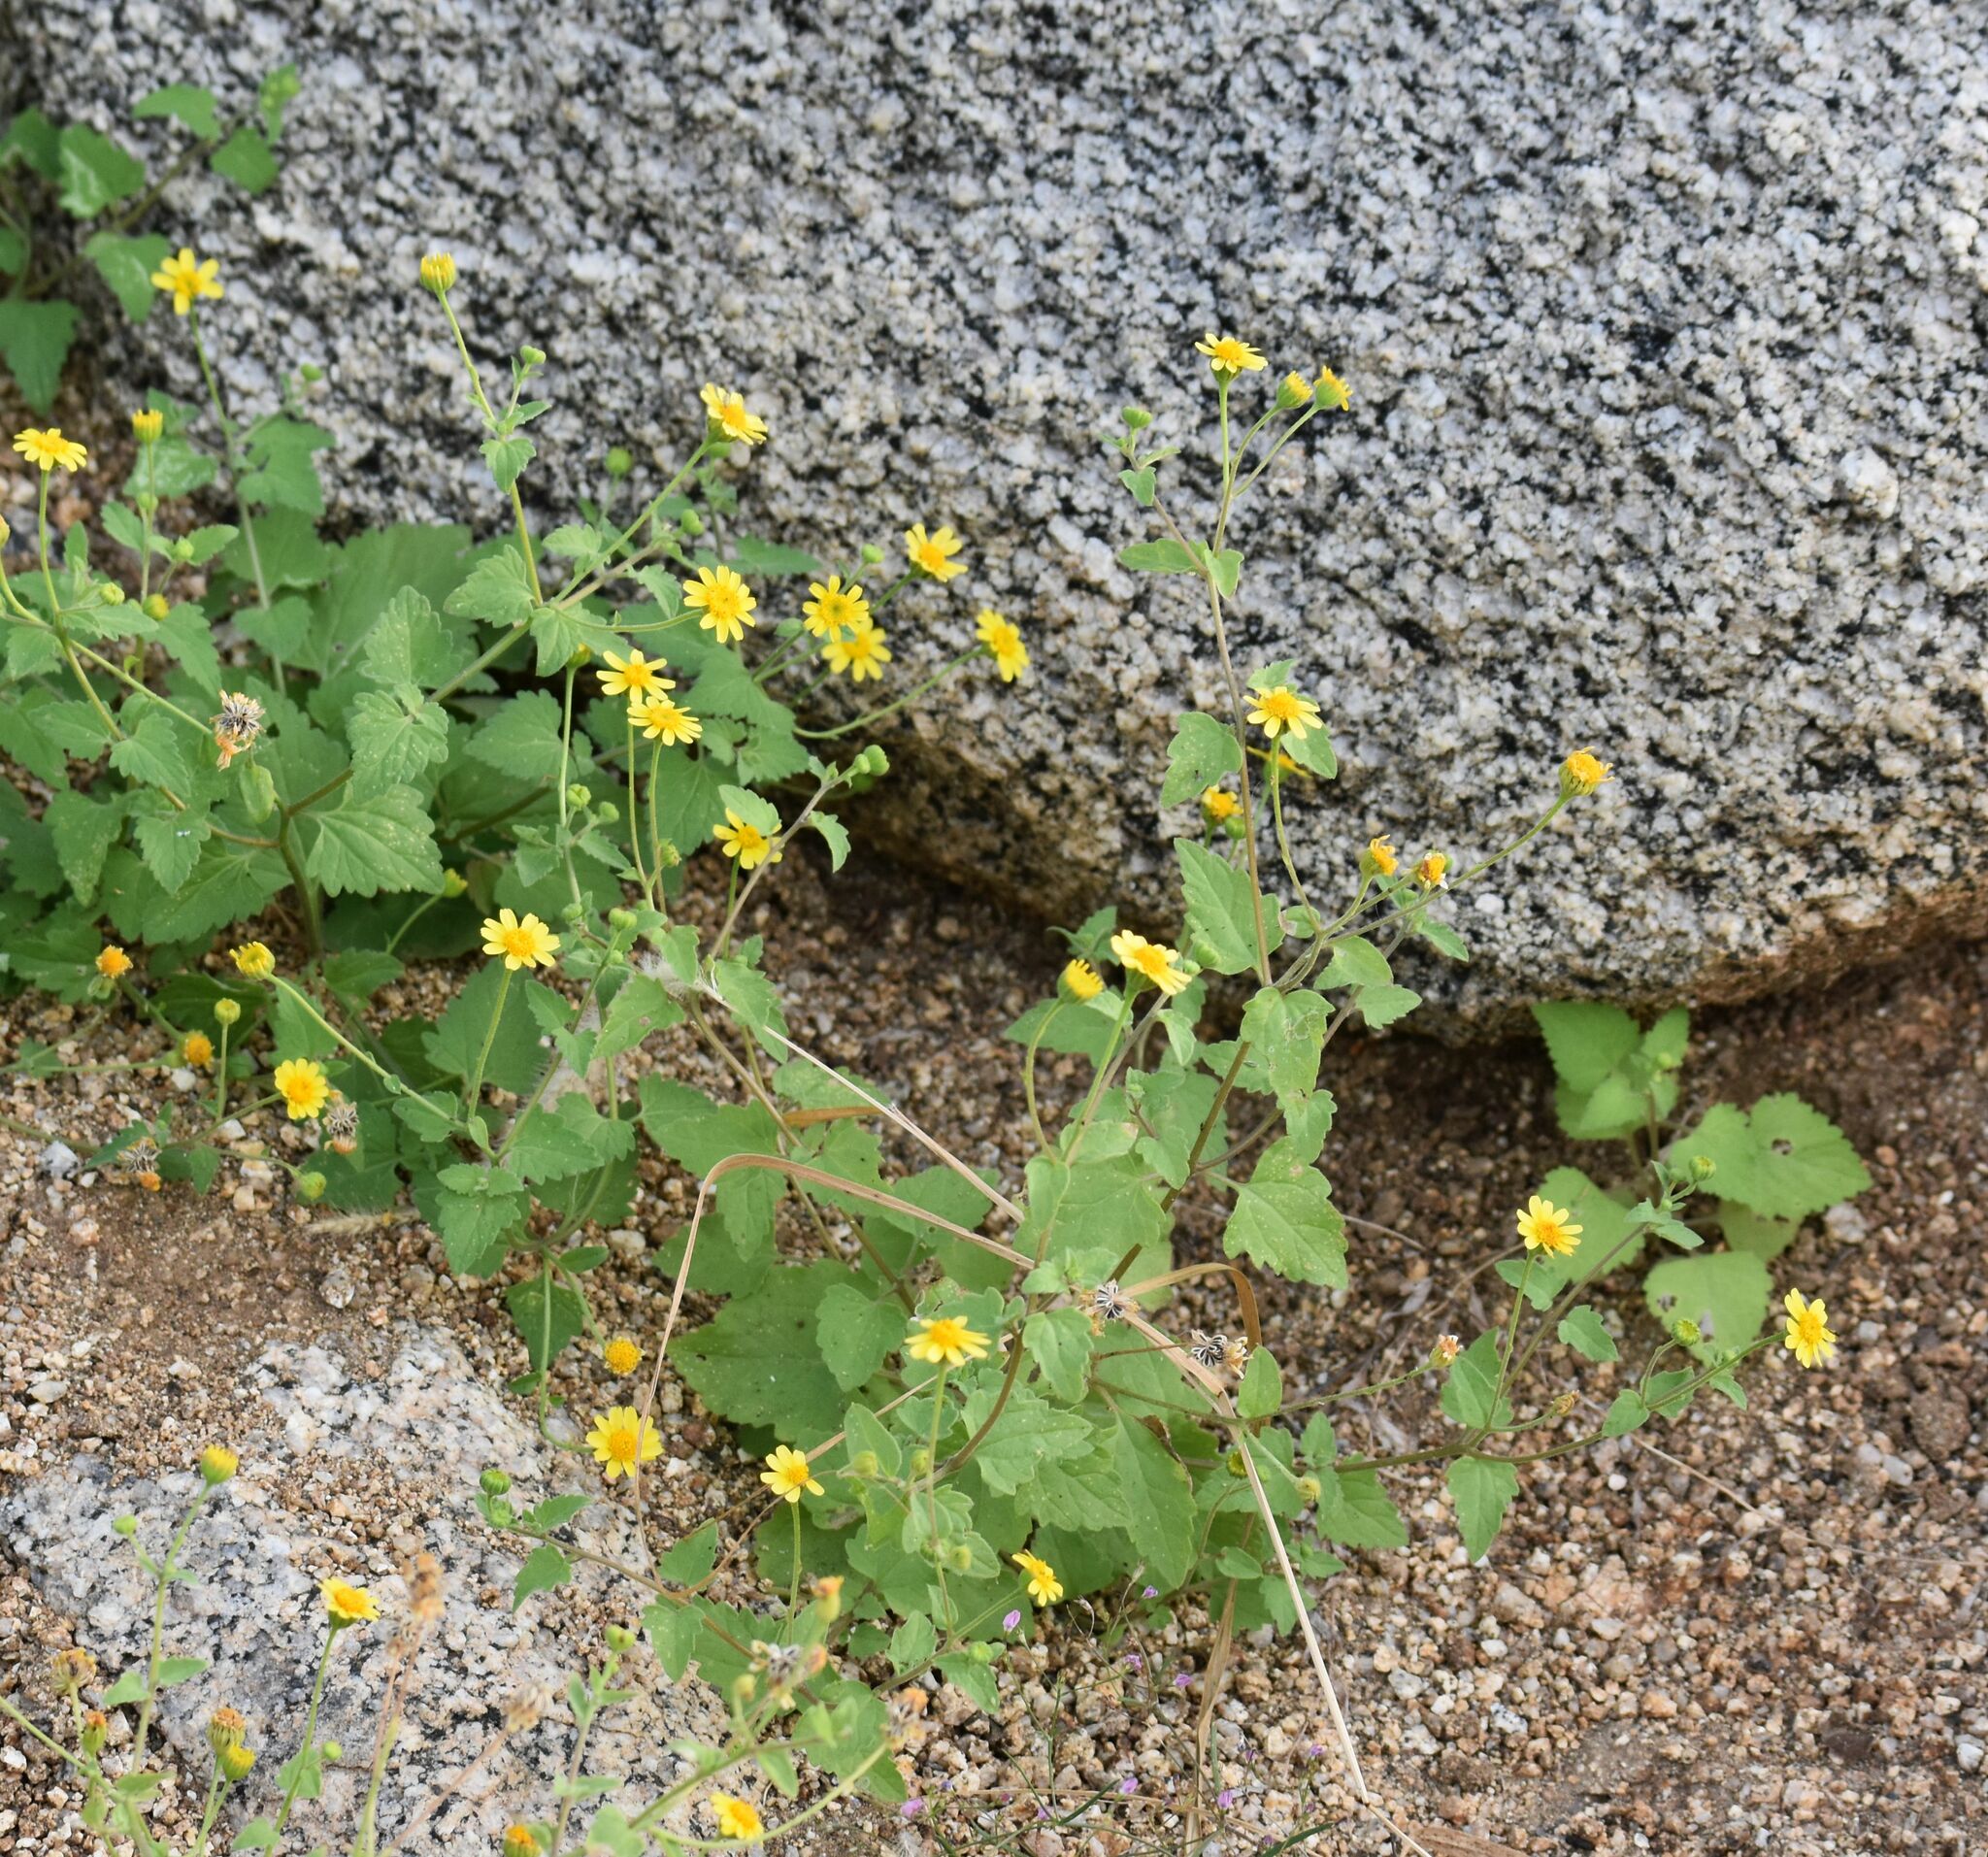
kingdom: Plantae
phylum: Tracheophyta
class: Magnoliopsida
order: Asterales
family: Asteraceae
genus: Perityle
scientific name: Perityle cuneata
